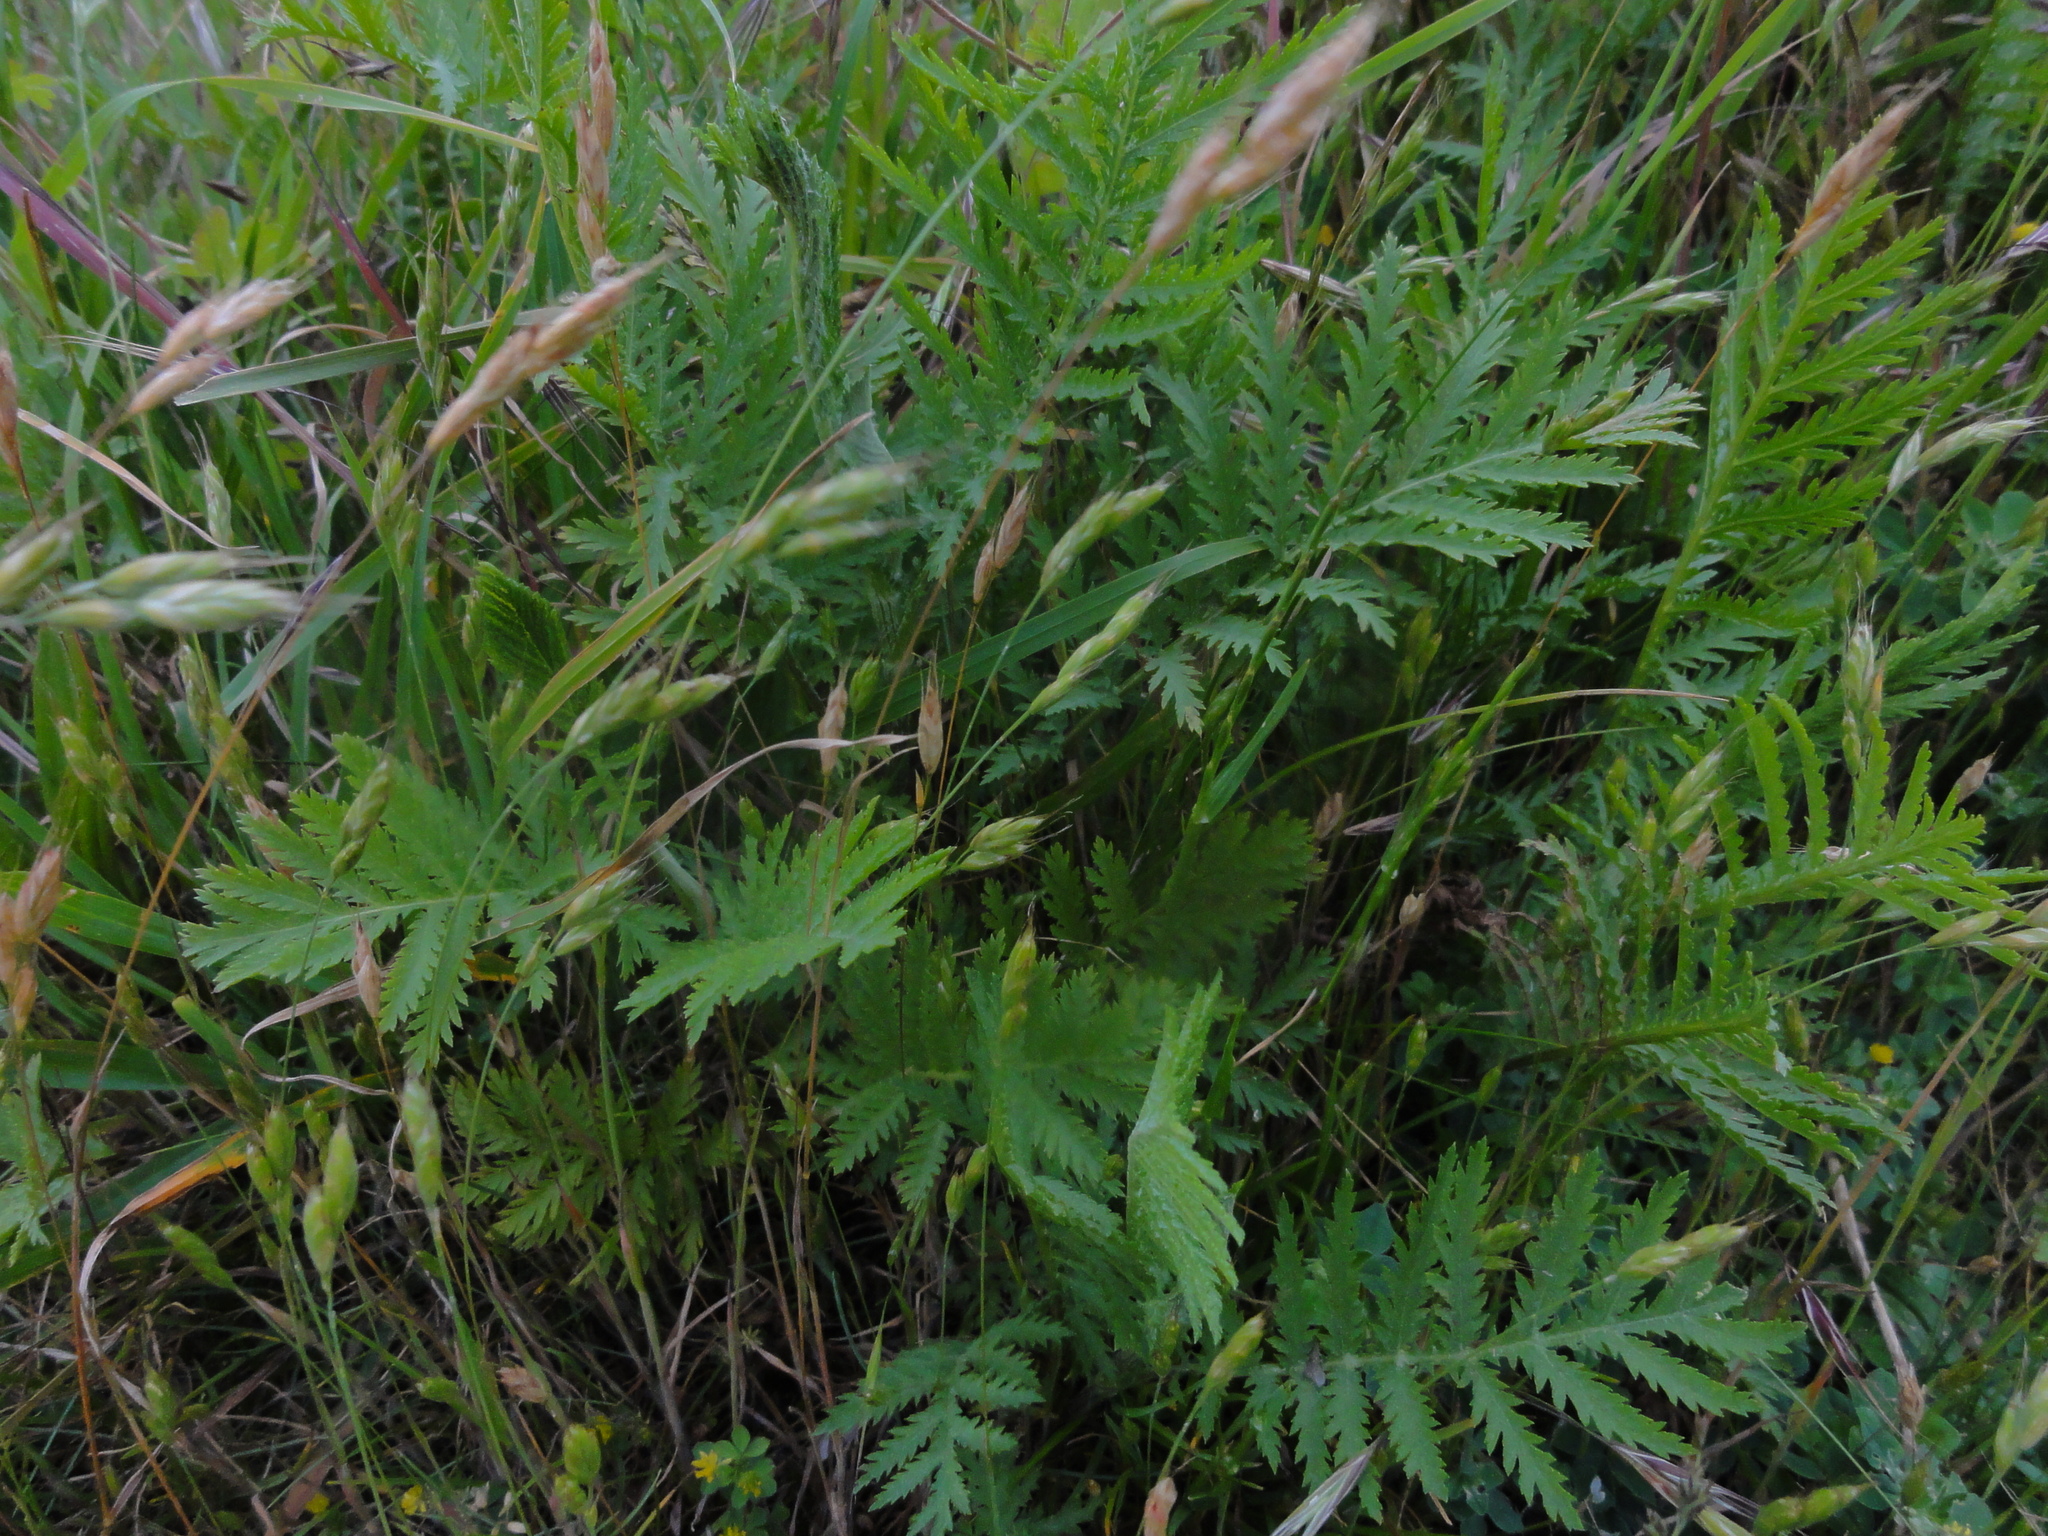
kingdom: Plantae
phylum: Tracheophyta
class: Magnoliopsida
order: Asterales
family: Asteraceae
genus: Tanacetum
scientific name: Tanacetum vulgare
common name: Common tansy
